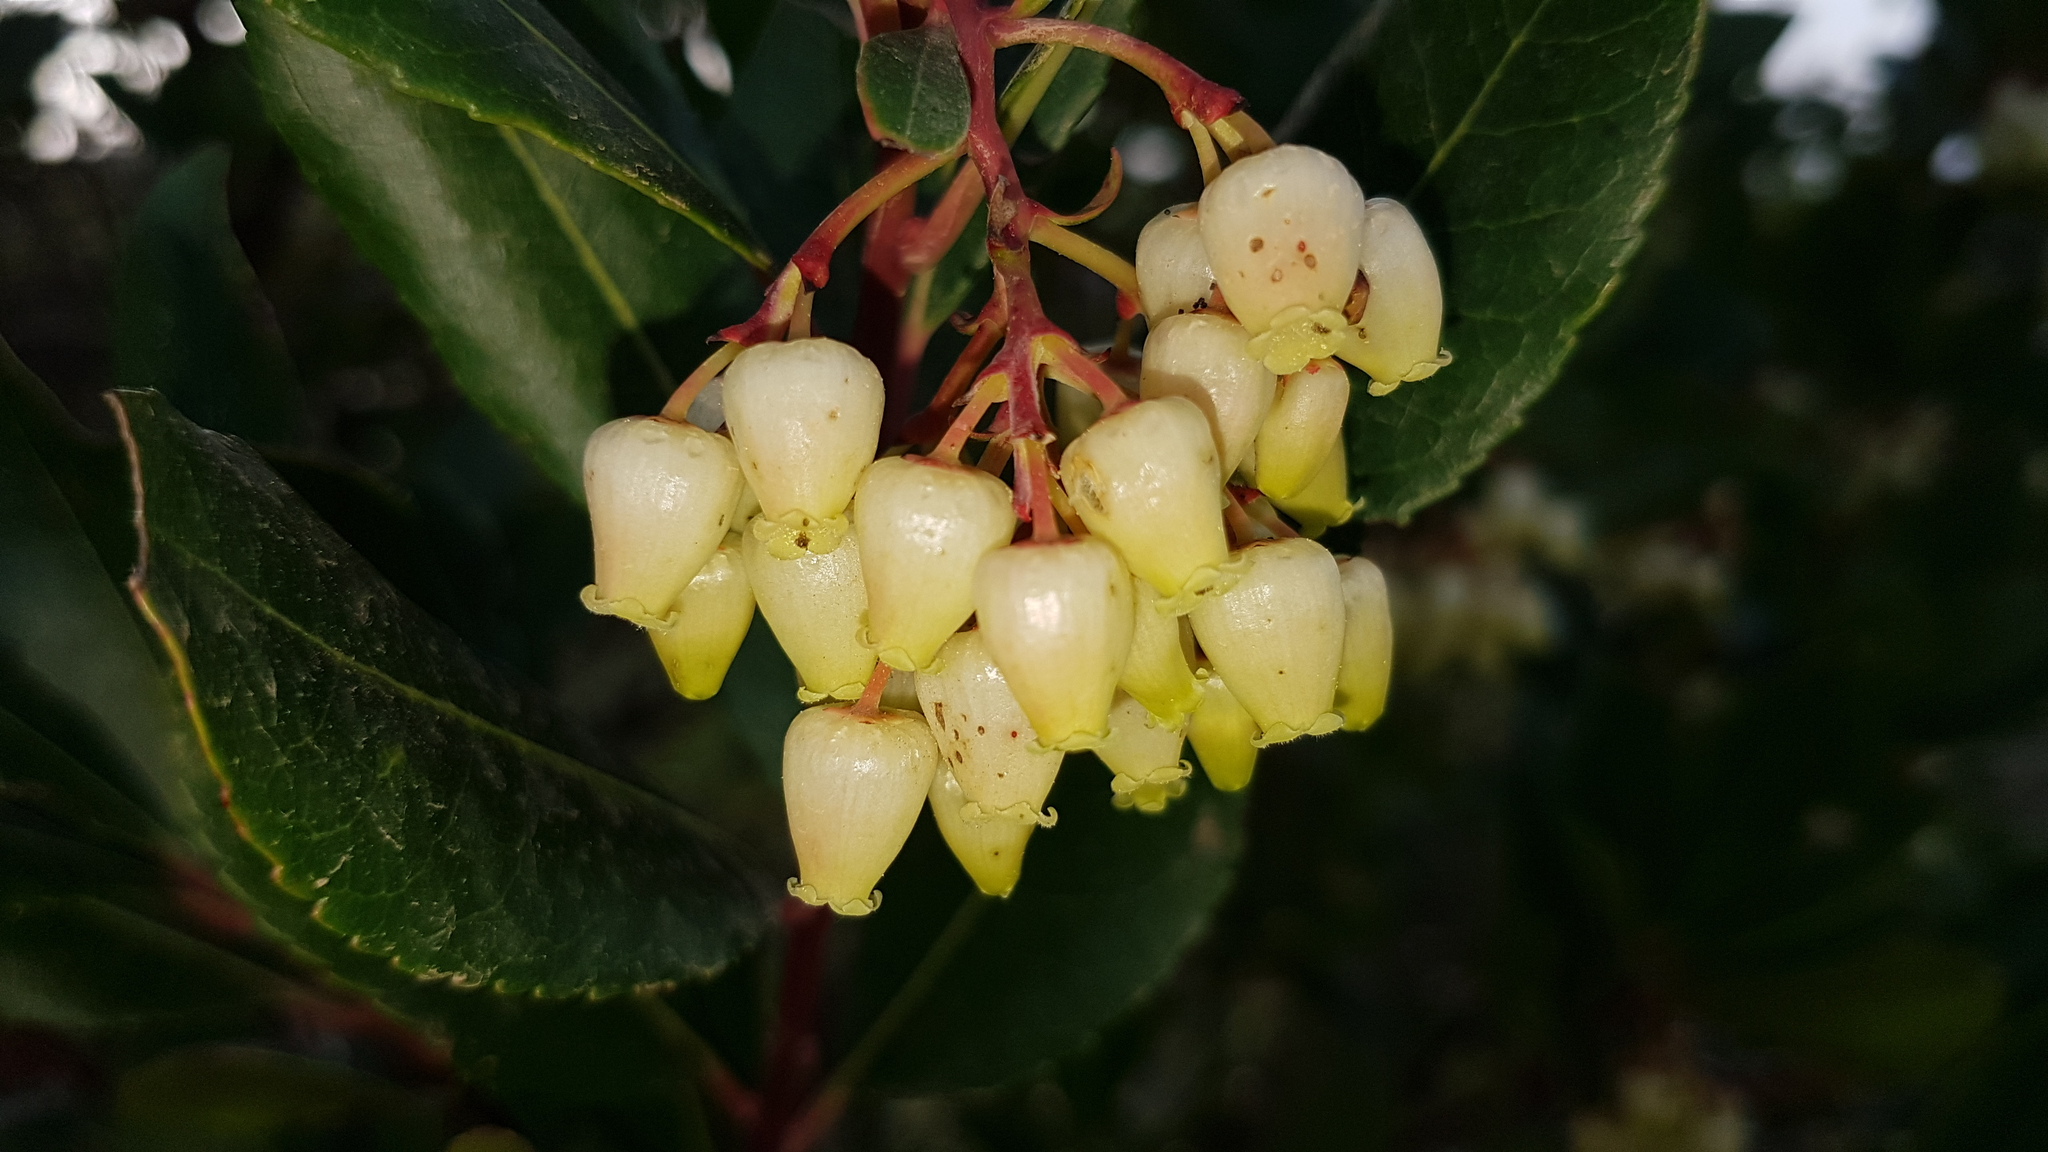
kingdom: Plantae
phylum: Tracheophyta
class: Magnoliopsida
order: Ericales
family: Ericaceae
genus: Arbutus
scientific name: Arbutus unedo
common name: Strawberry-tree
